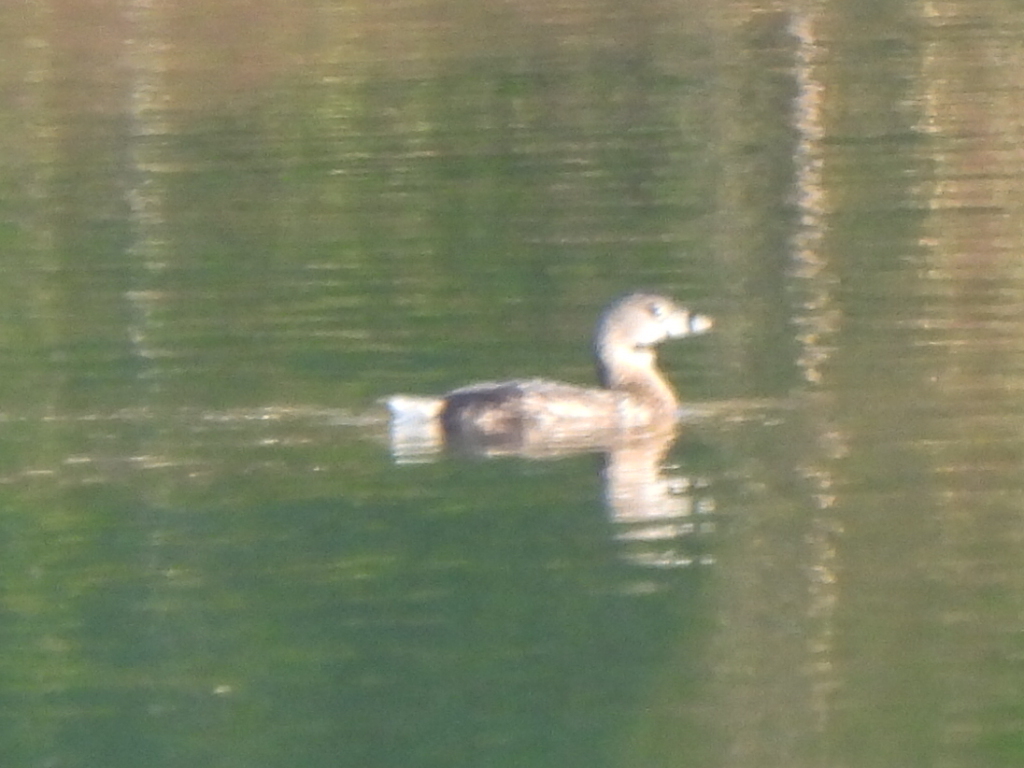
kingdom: Animalia
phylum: Chordata
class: Aves
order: Podicipediformes
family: Podicipedidae
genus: Podilymbus
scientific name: Podilymbus podiceps
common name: Pied-billed grebe
